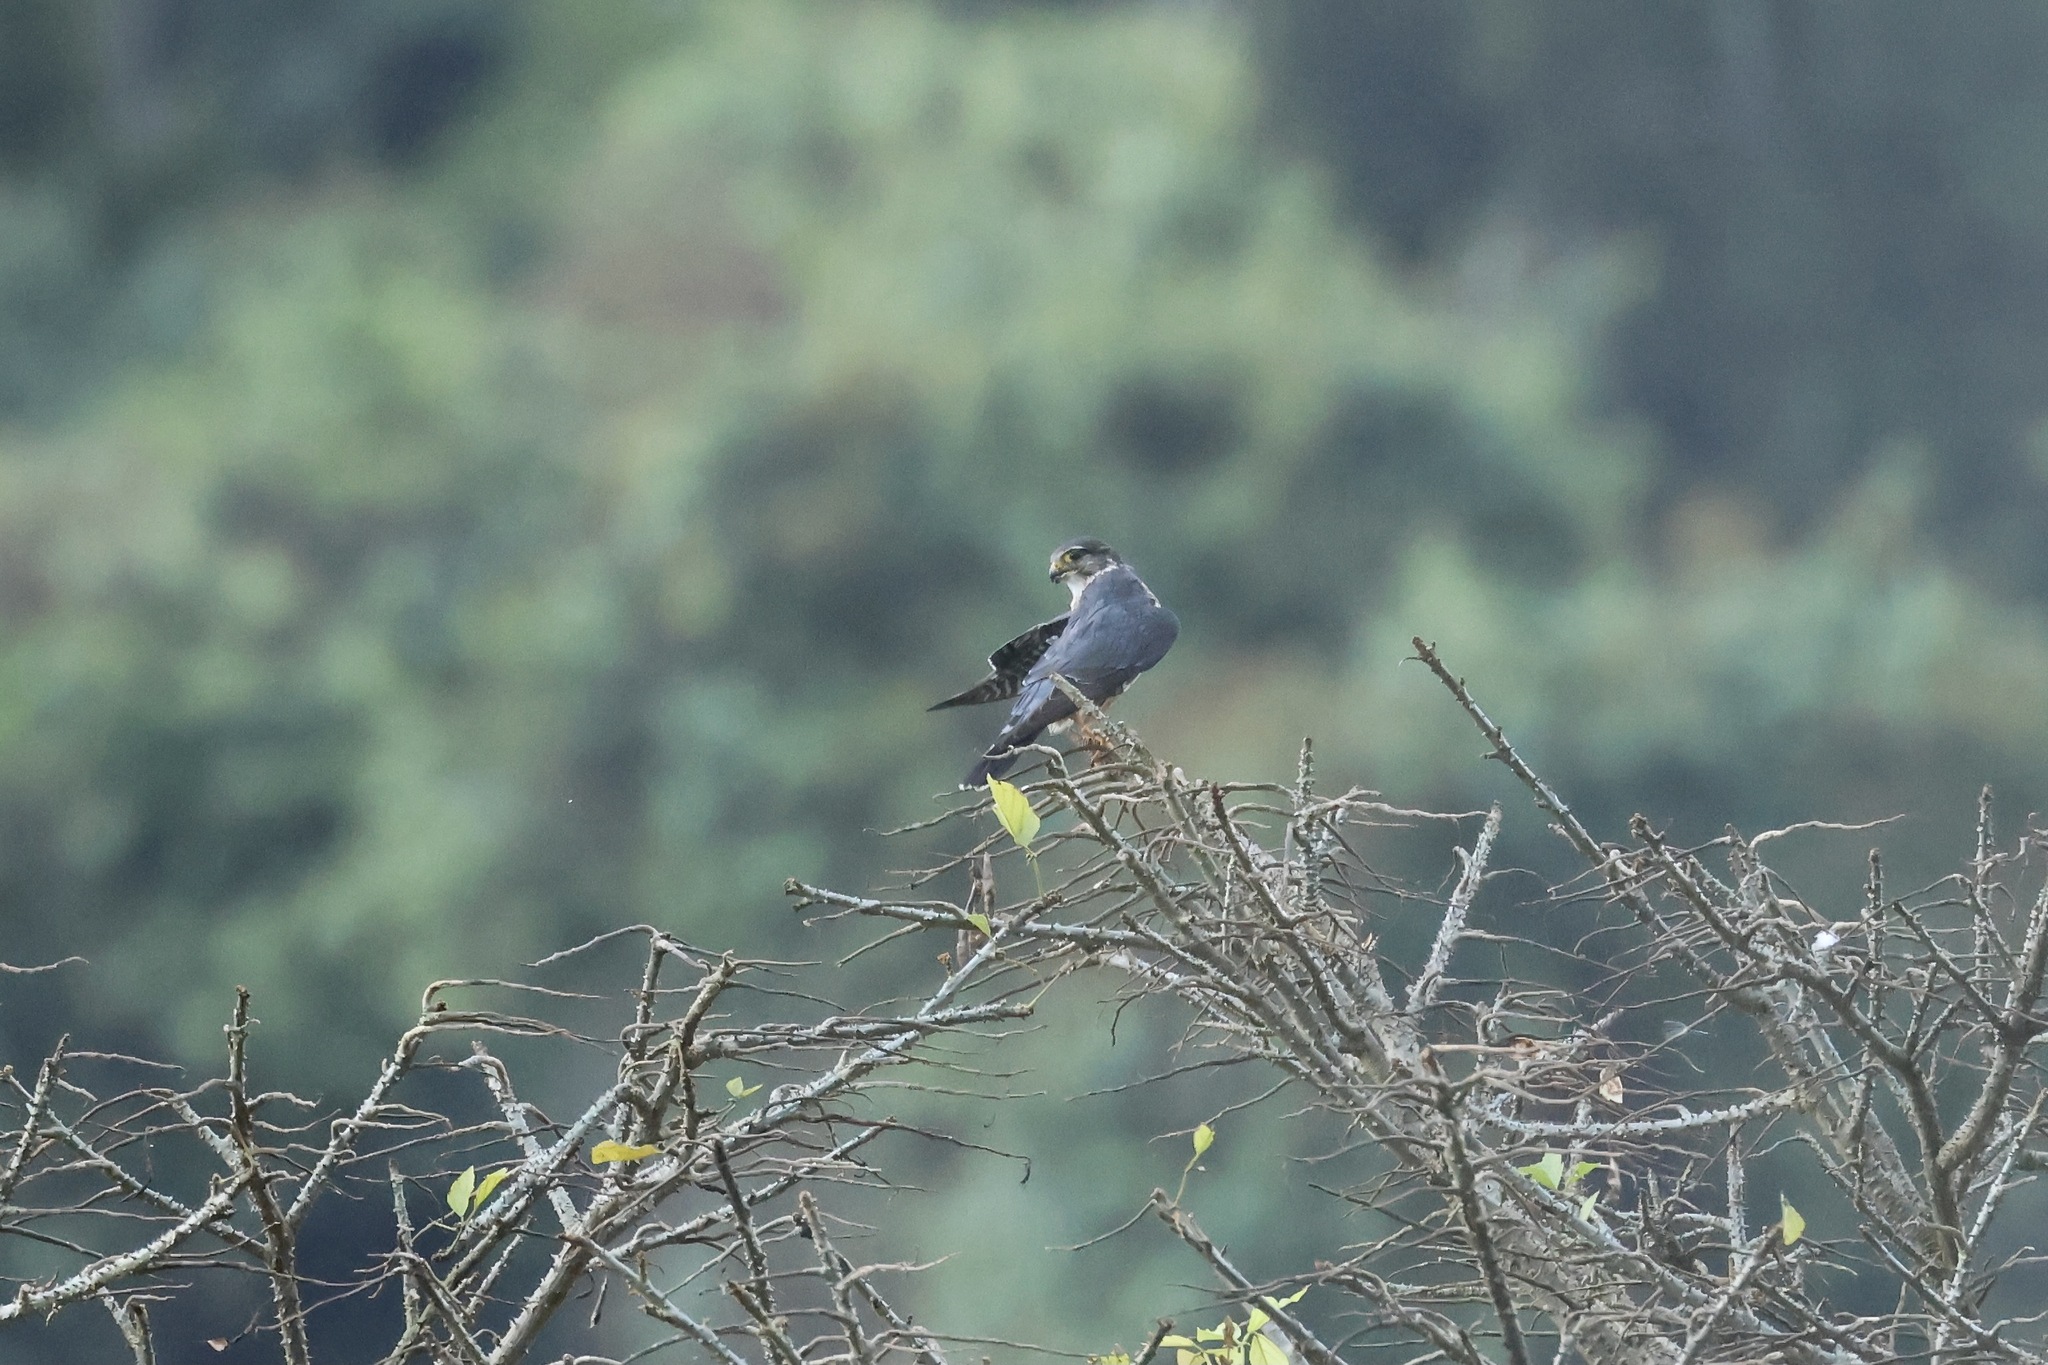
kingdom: Animalia
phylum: Chordata
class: Aves
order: Falconiformes
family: Falconidae
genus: Falco
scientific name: Falco columbarius
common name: Merlin
